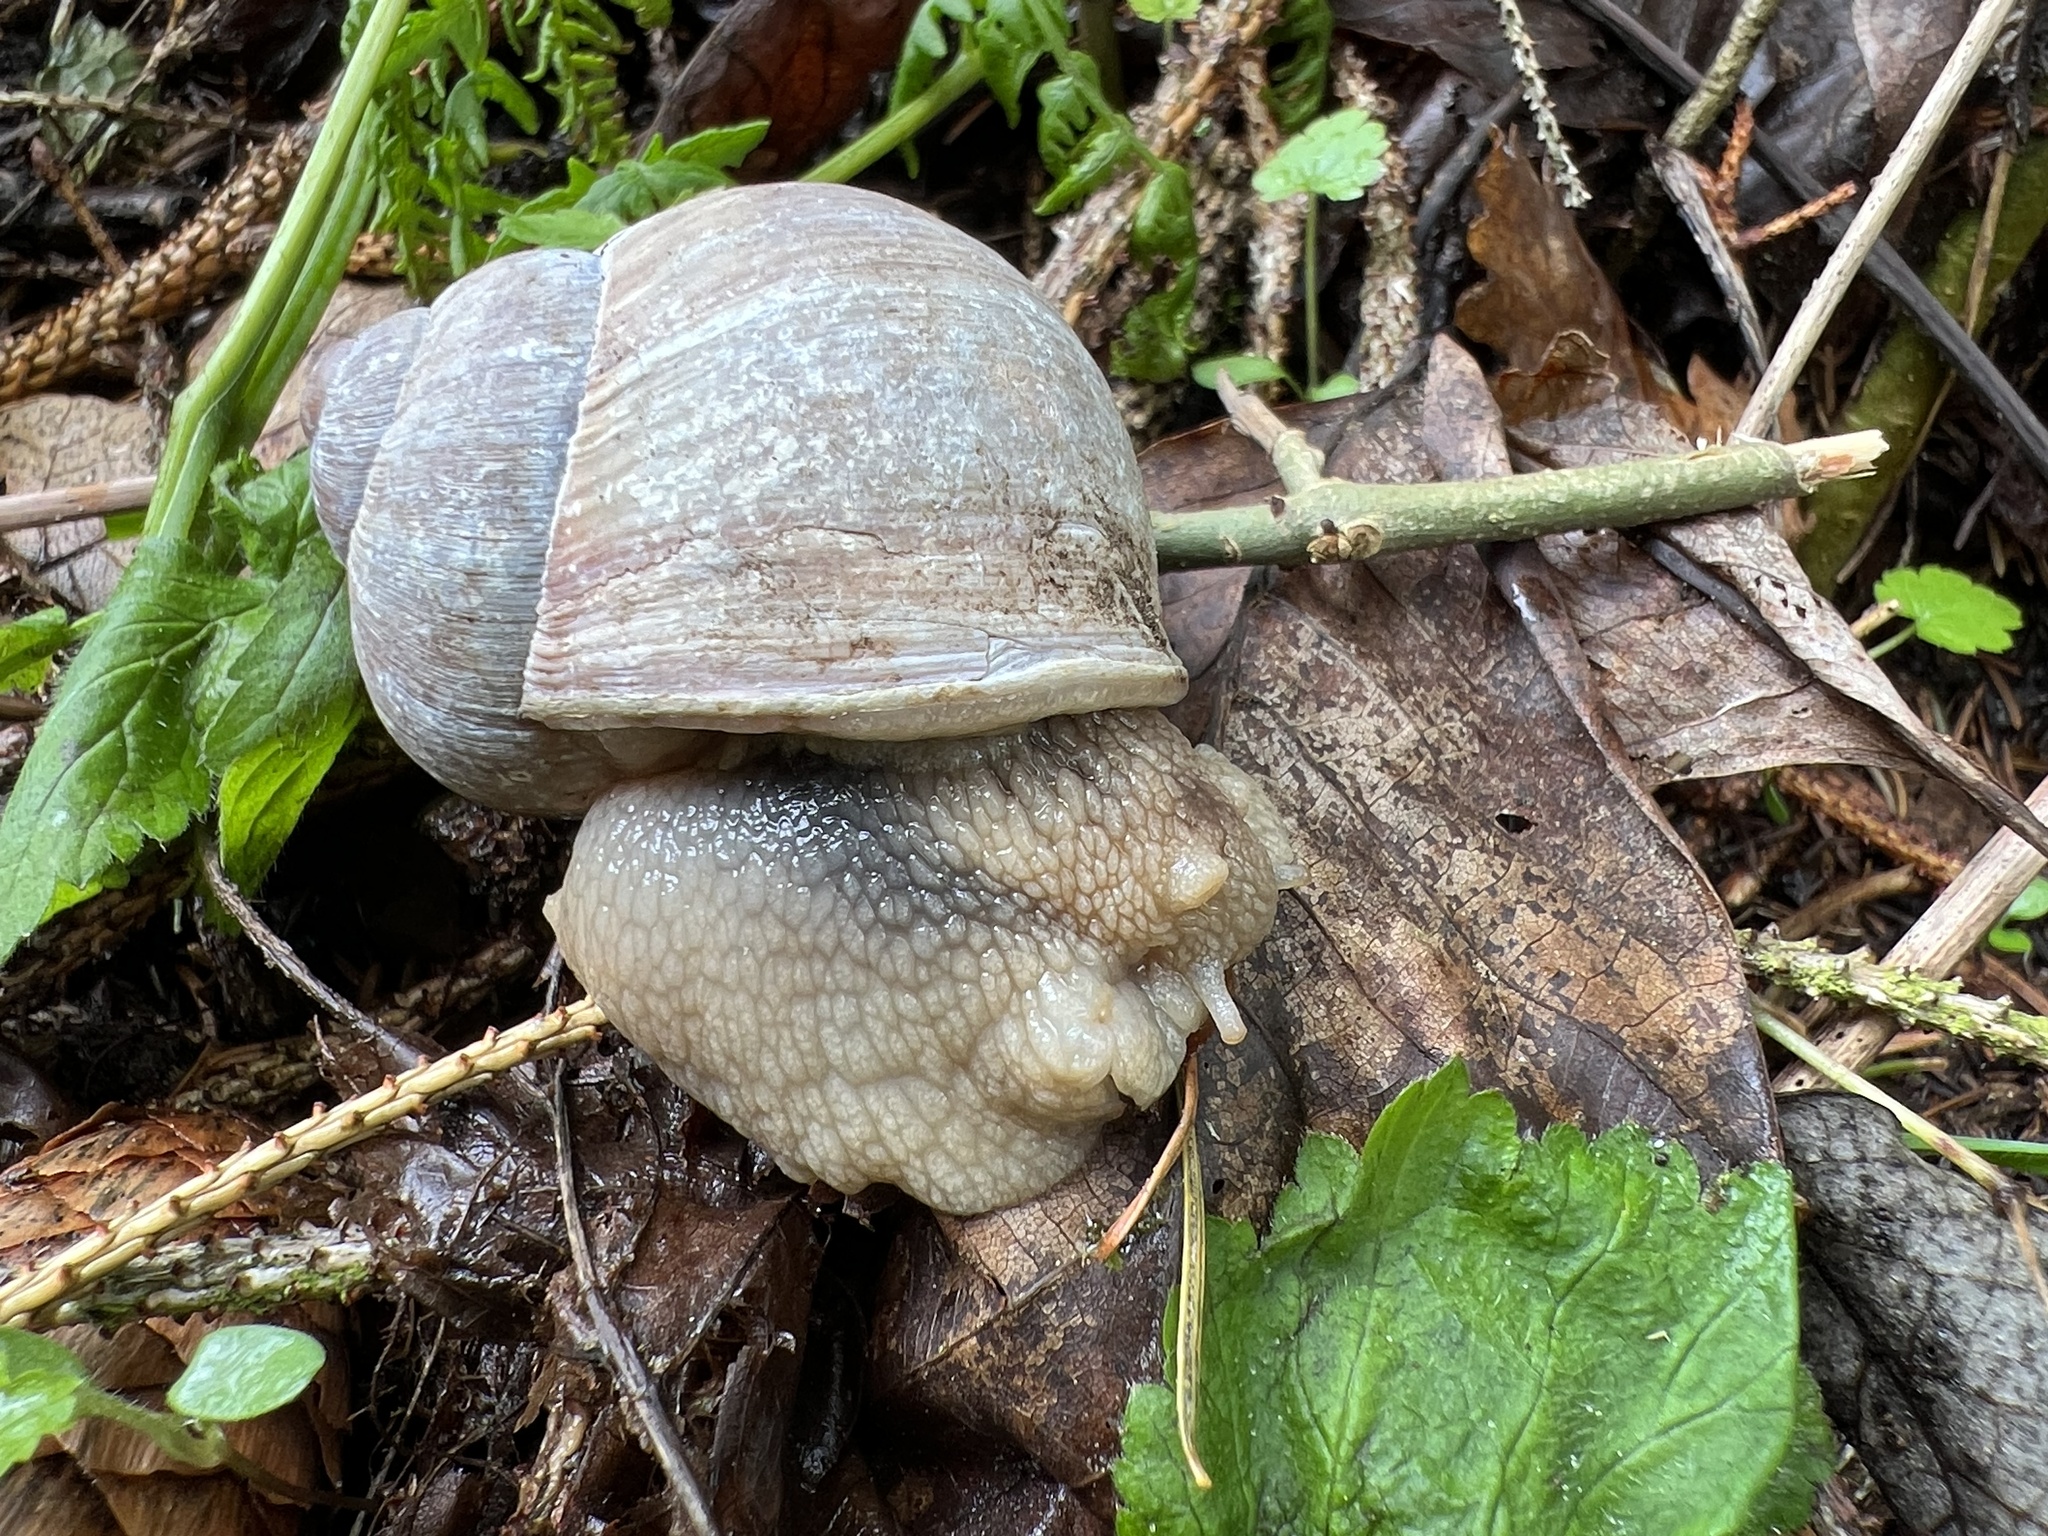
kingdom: Animalia
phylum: Mollusca
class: Gastropoda
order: Stylommatophora
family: Helicidae
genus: Helix
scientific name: Helix pomatia
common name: Roman snail
